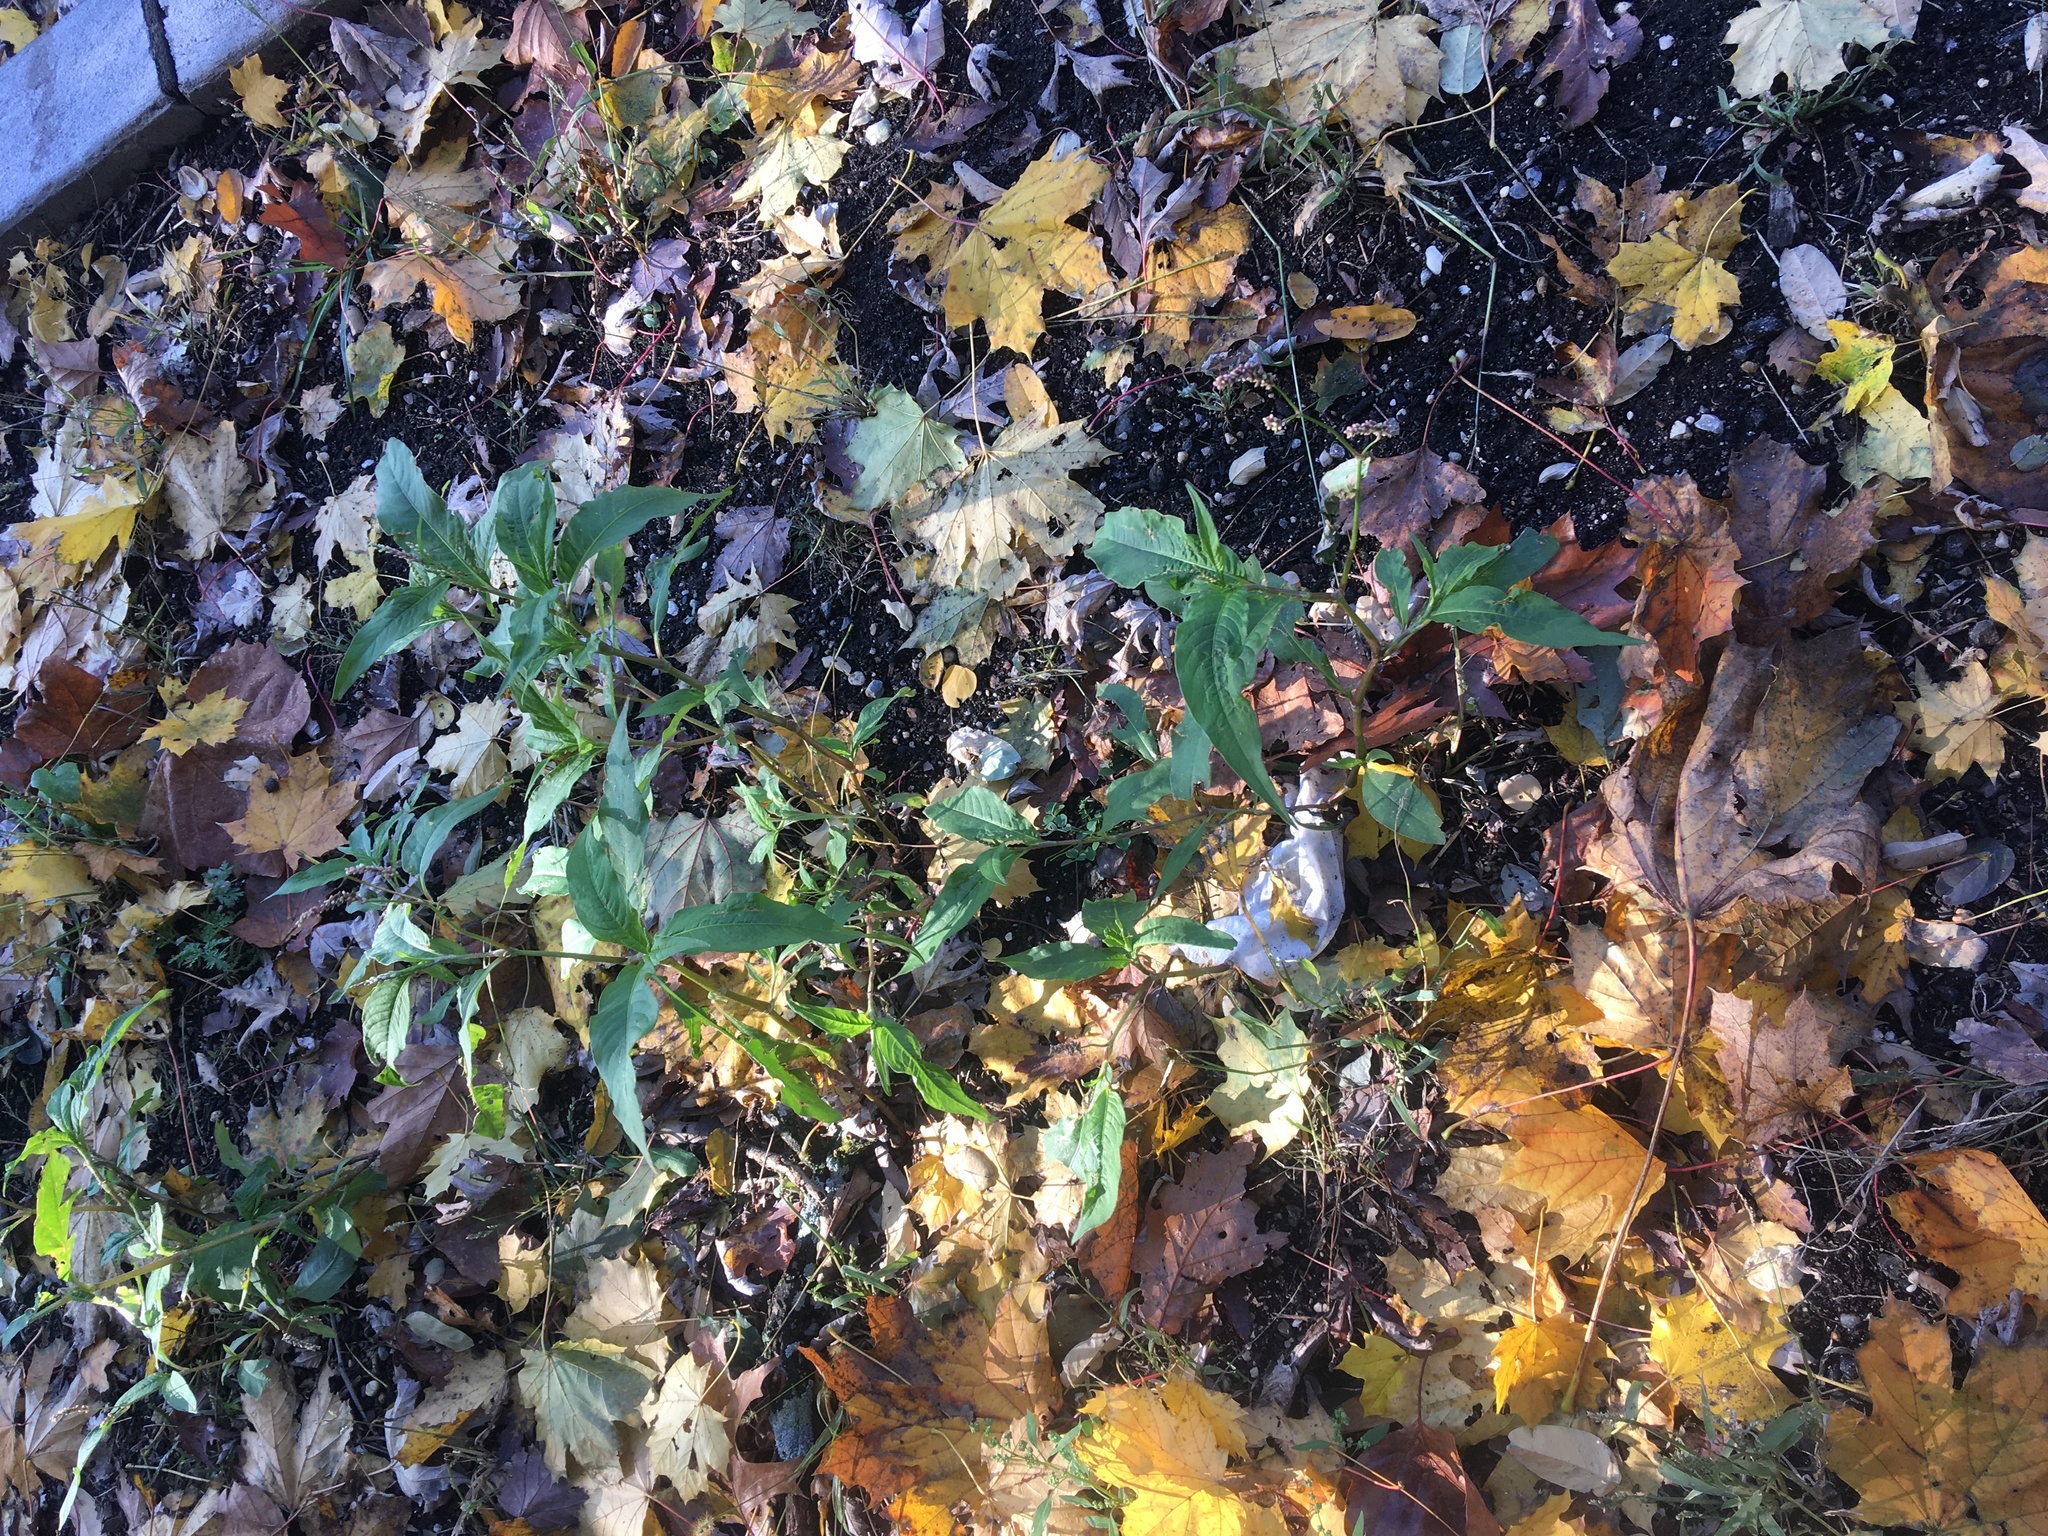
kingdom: Plantae
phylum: Tracheophyta
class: Magnoliopsida
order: Caryophyllales
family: Polygonaceae
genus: Persicaria
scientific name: Persicaria extremiorientalis
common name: Far-eastern smartweed
